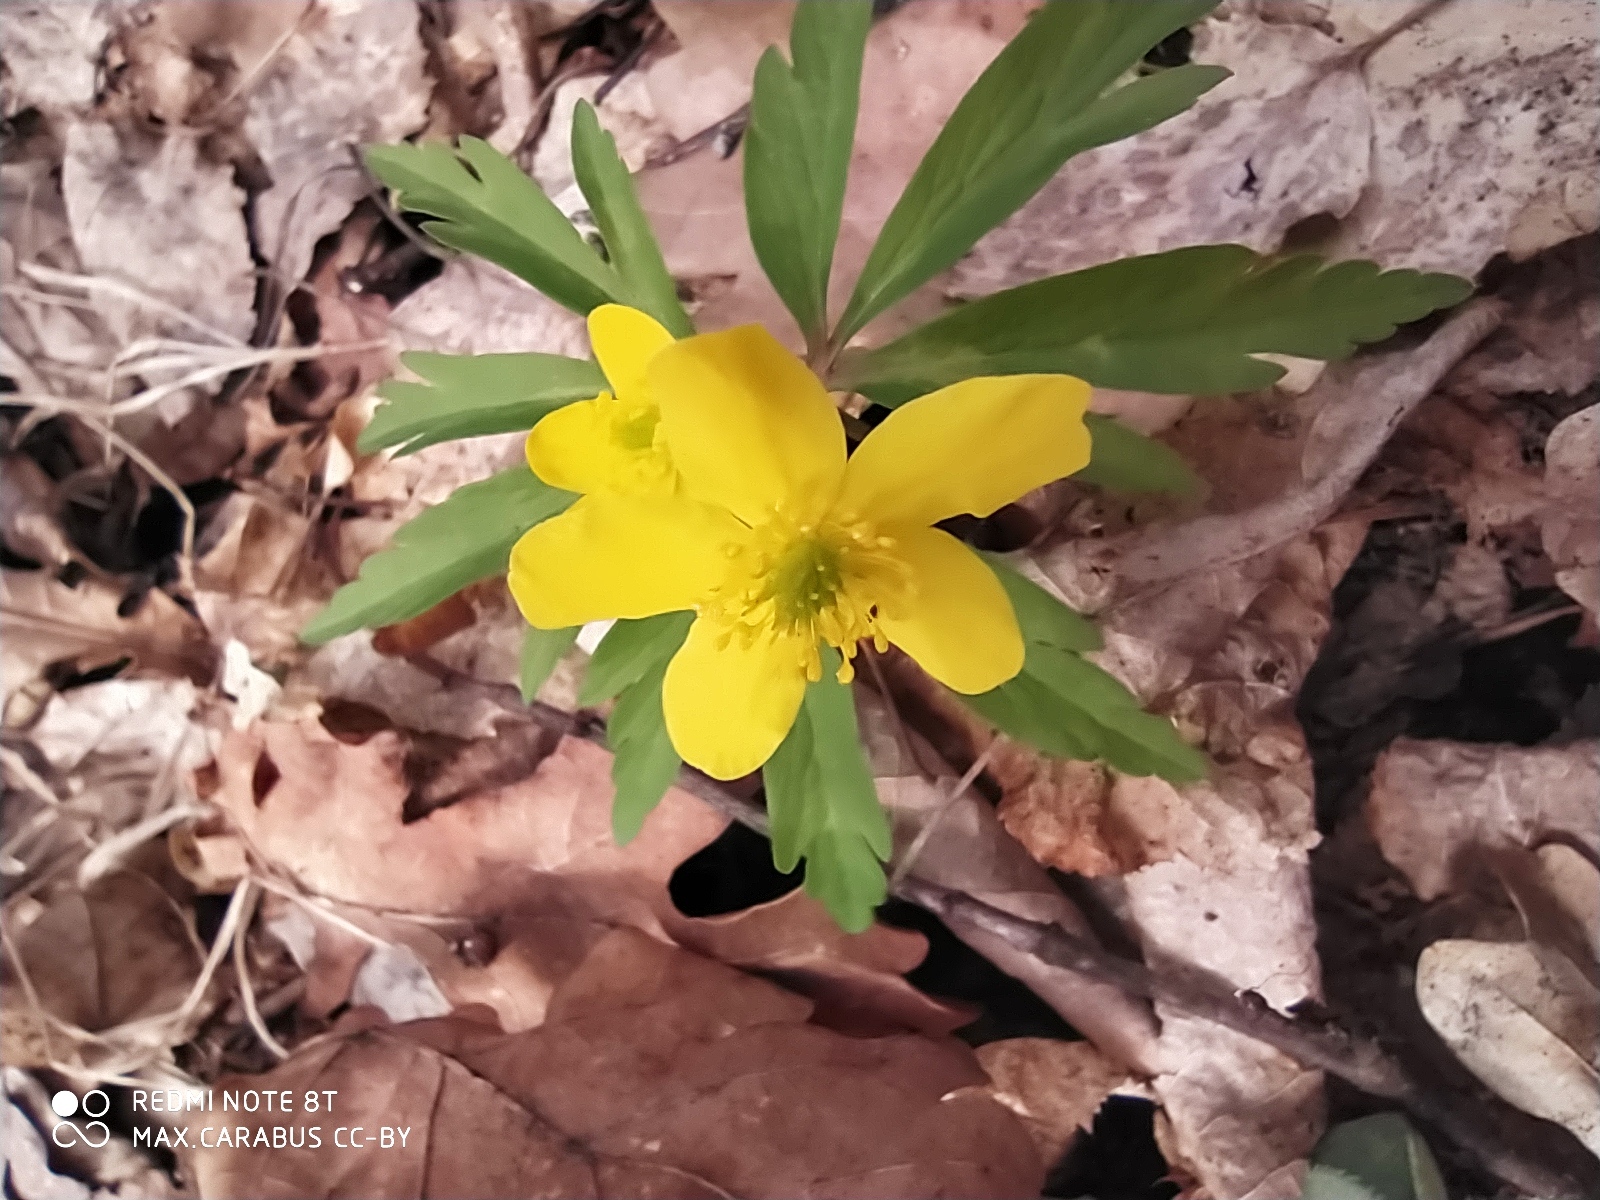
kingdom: Plantae
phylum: Tracheophyta
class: Magnoliopsida
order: Ranunculales
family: Ranunculaceae
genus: Anemone
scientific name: Anemone ranunculoides
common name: Yellow anemone
